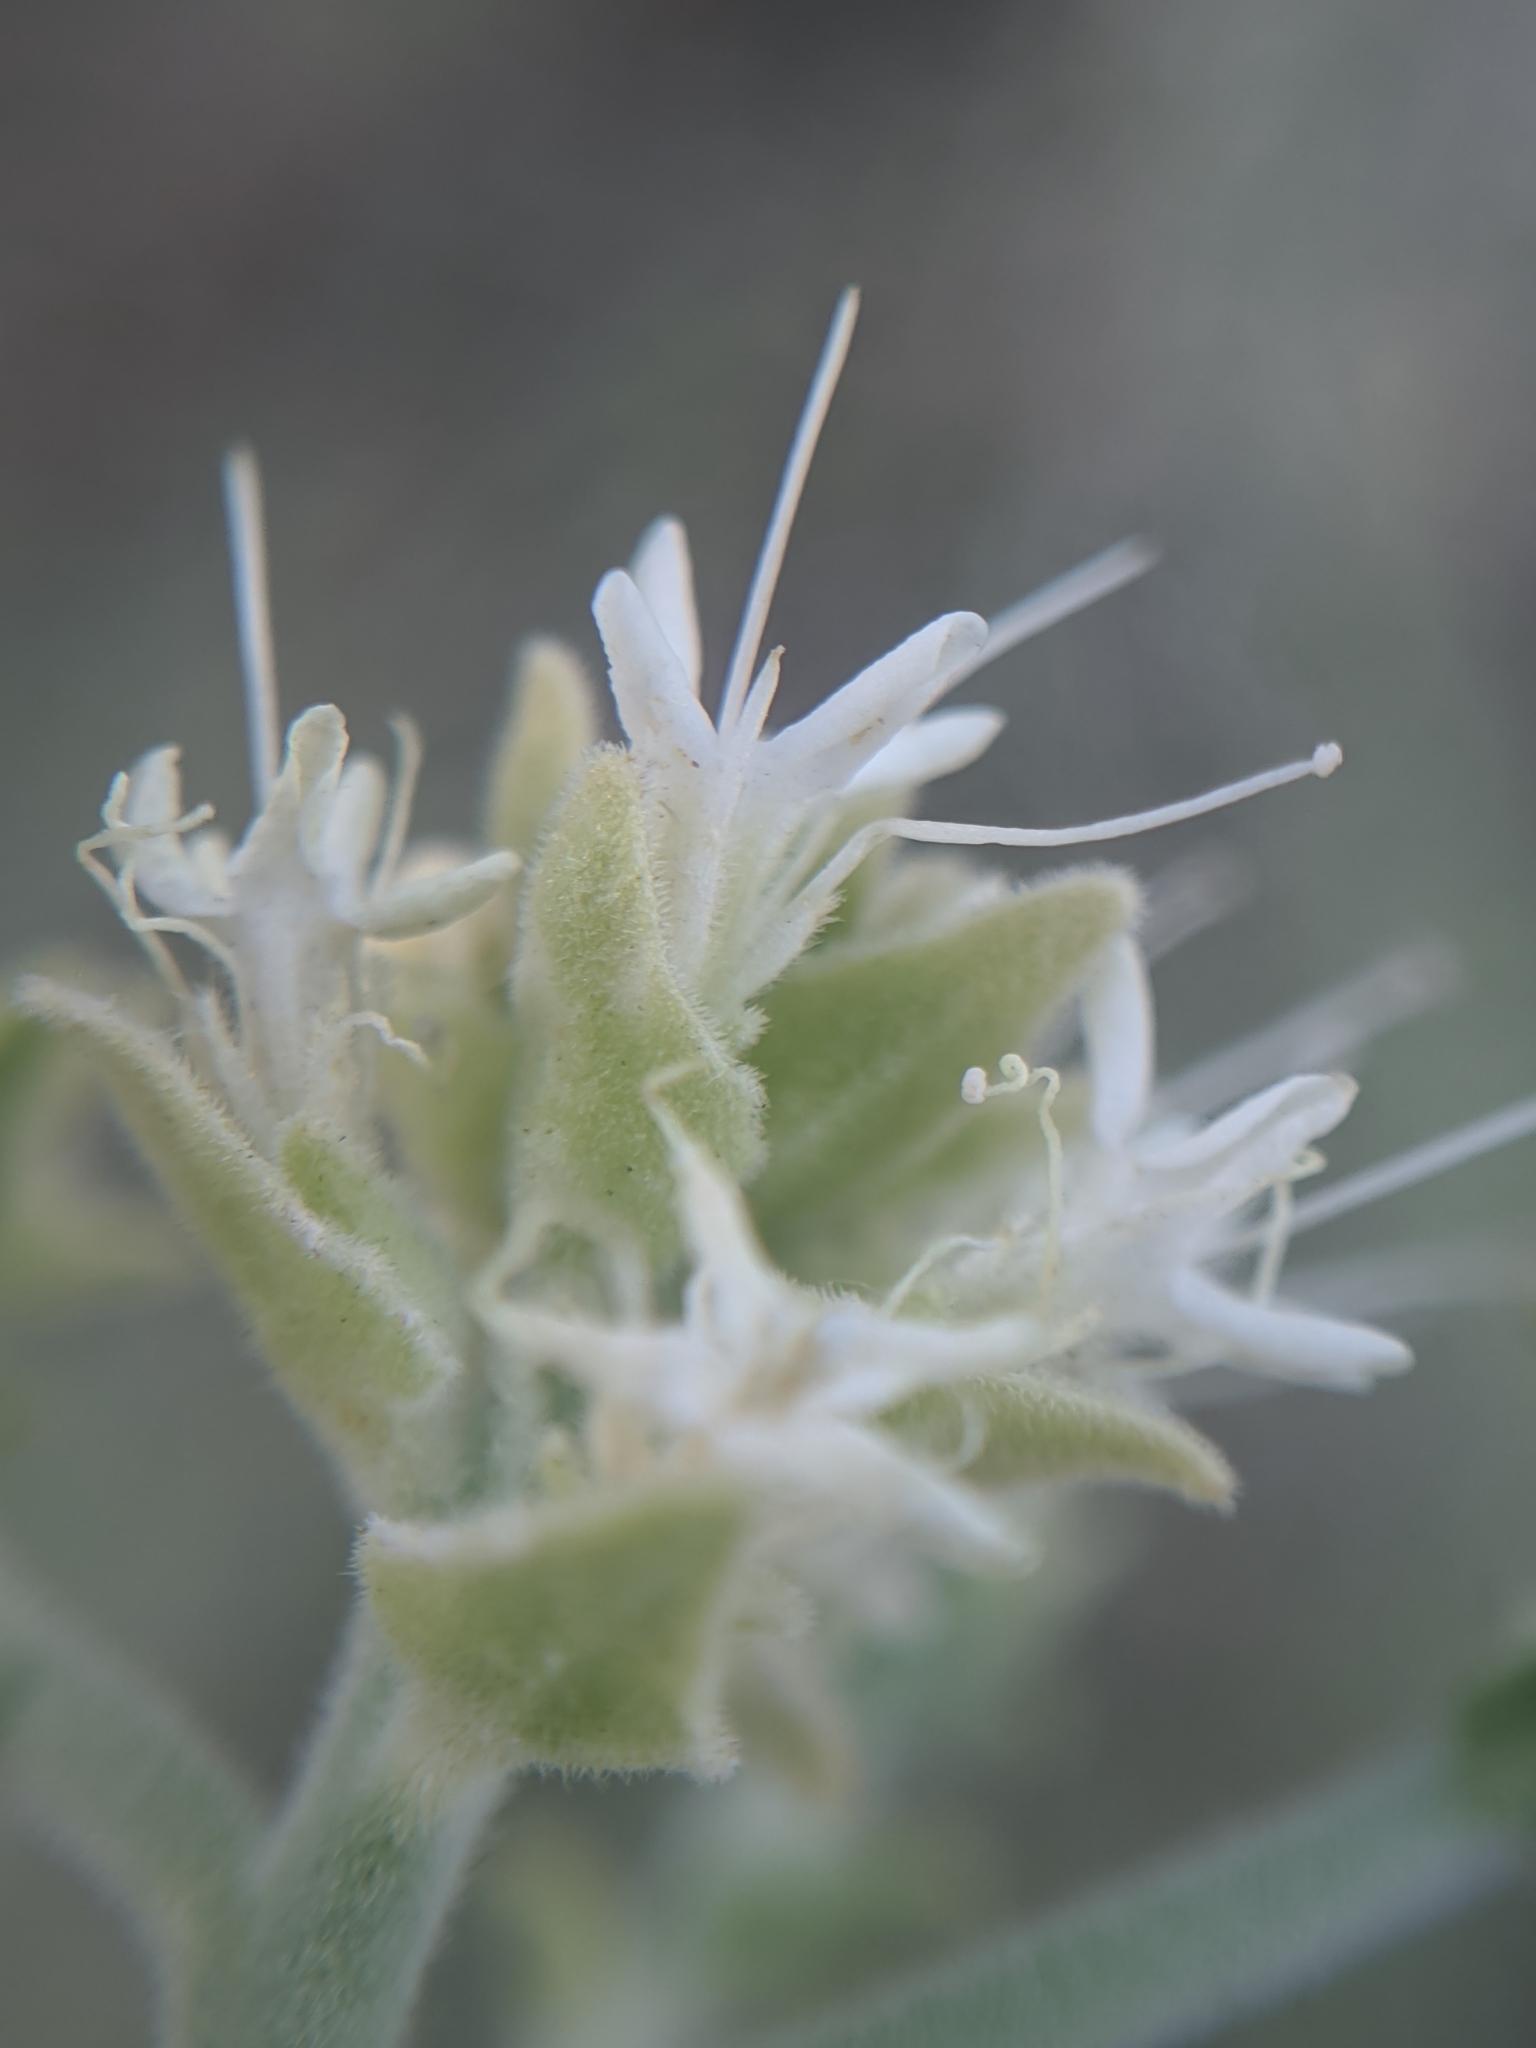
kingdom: Plantae
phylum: Tracheophyta
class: Magnoliopsida
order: Cornales
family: Loasaceae
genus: Petalonyx
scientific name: Petalonyx thurberi
